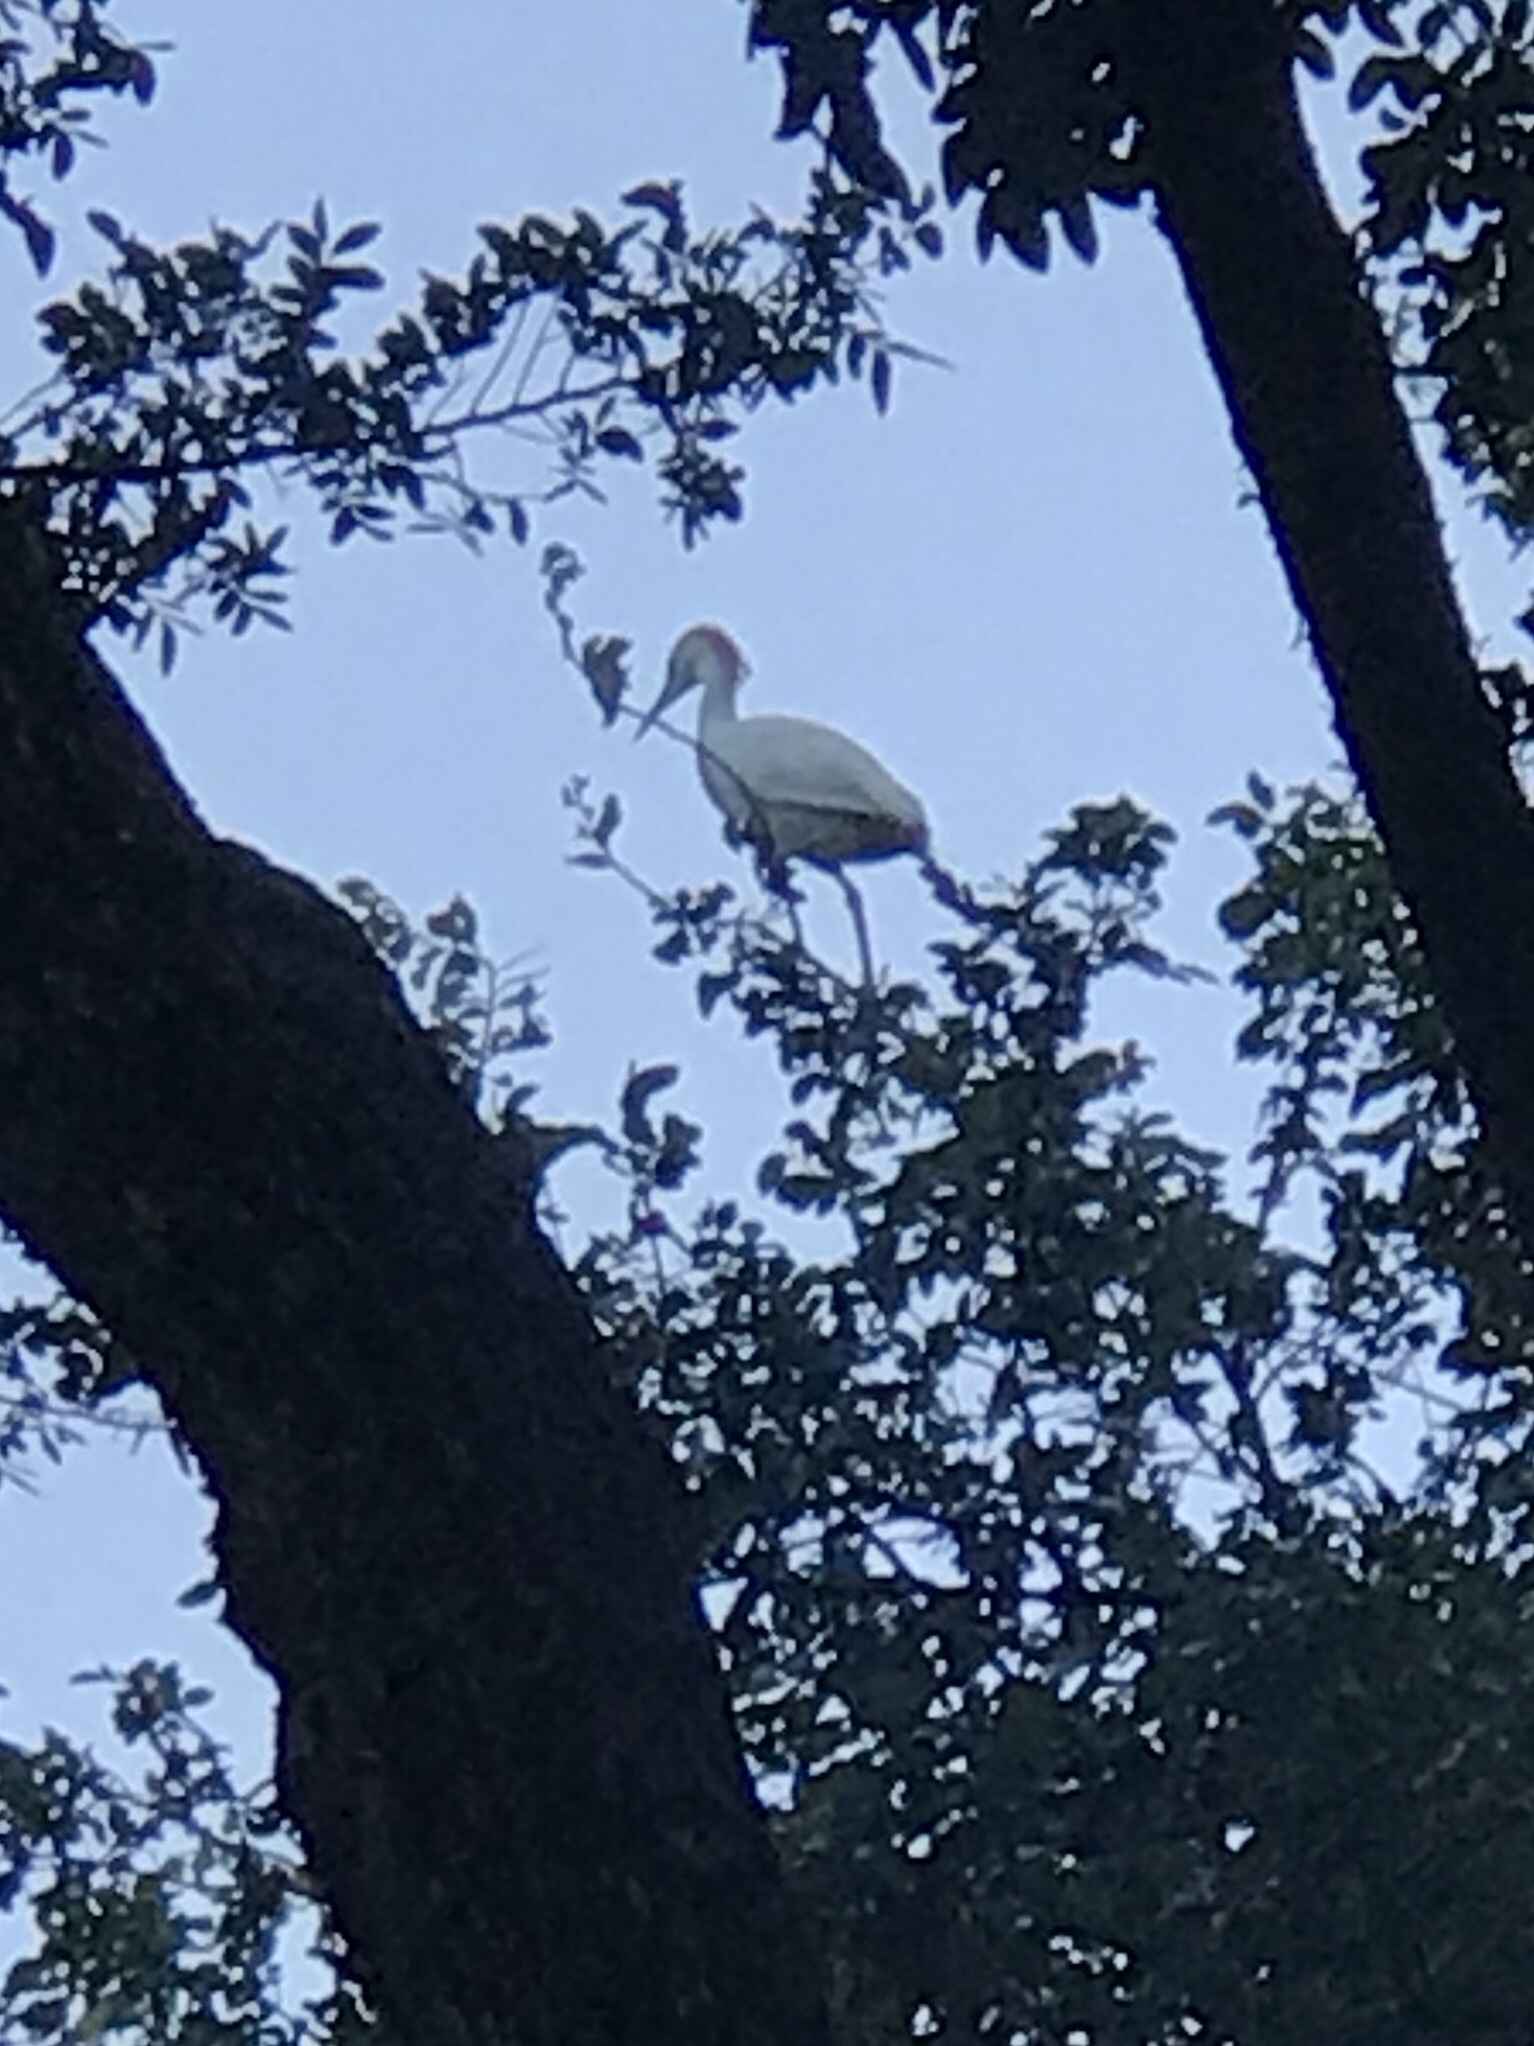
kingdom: Animalia
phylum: Chordata
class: Aves
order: Pelecaniformes
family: Ardeidae
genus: Bubulcus
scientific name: Bubulcus ibis
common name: Cattle egret
